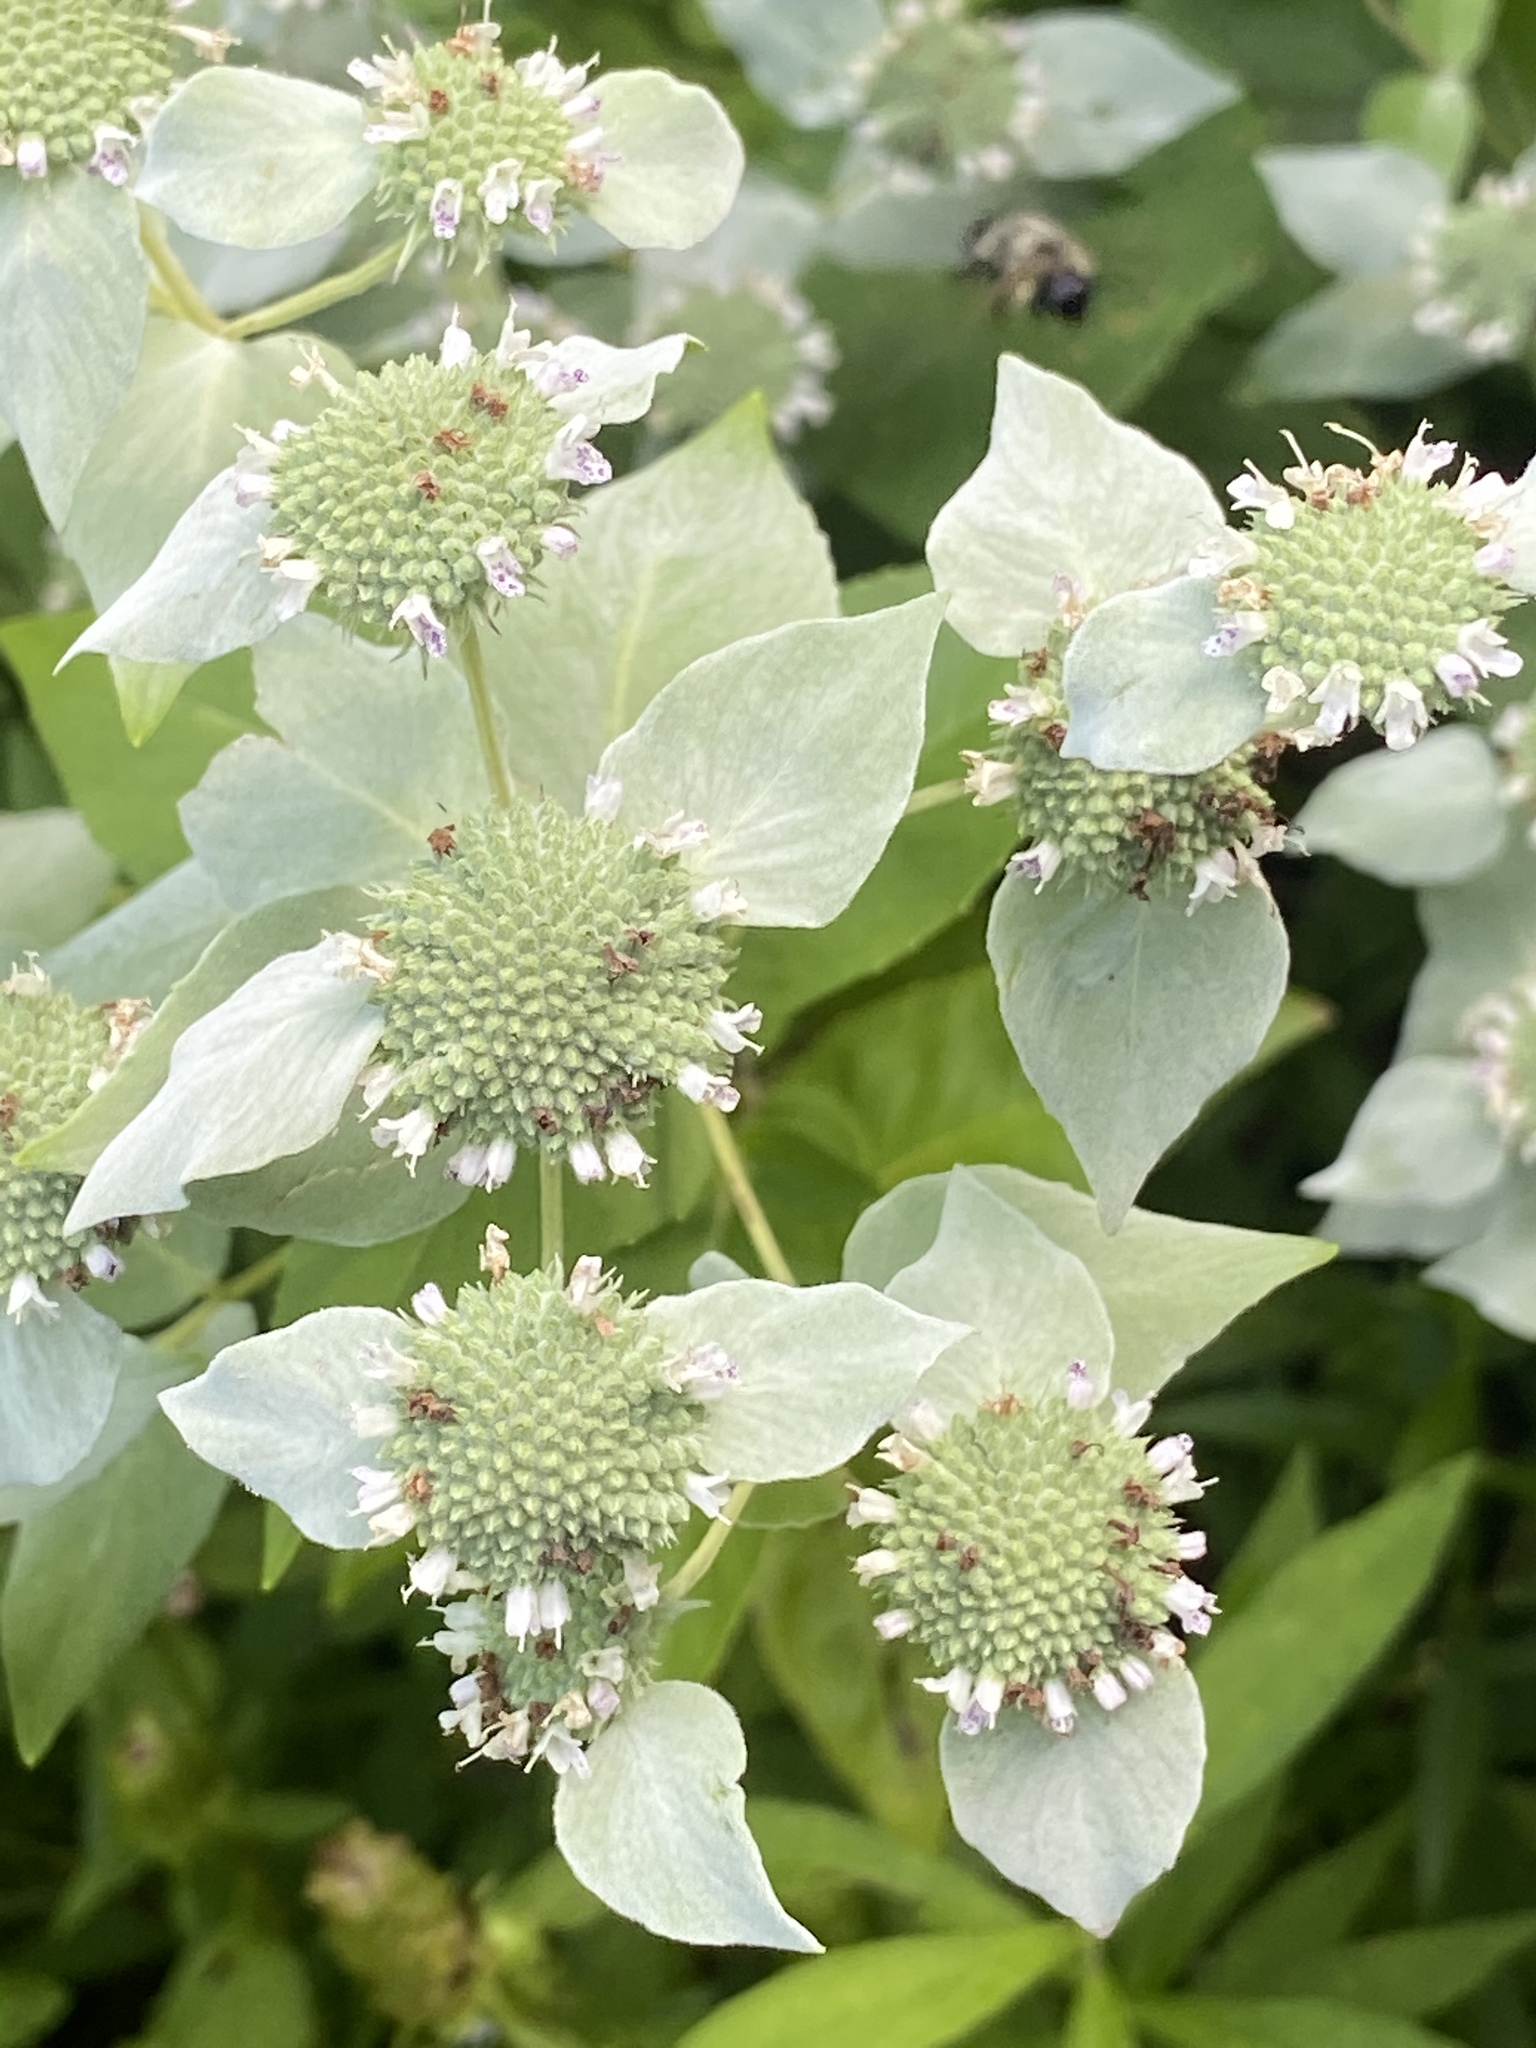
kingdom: Plantae
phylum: Tracheophyta
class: Magnoliopsida
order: Lamiales
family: Lamiaceae
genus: Pycnanthemum
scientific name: Pycnanthemum muticum
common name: Blunt mountain-mint
